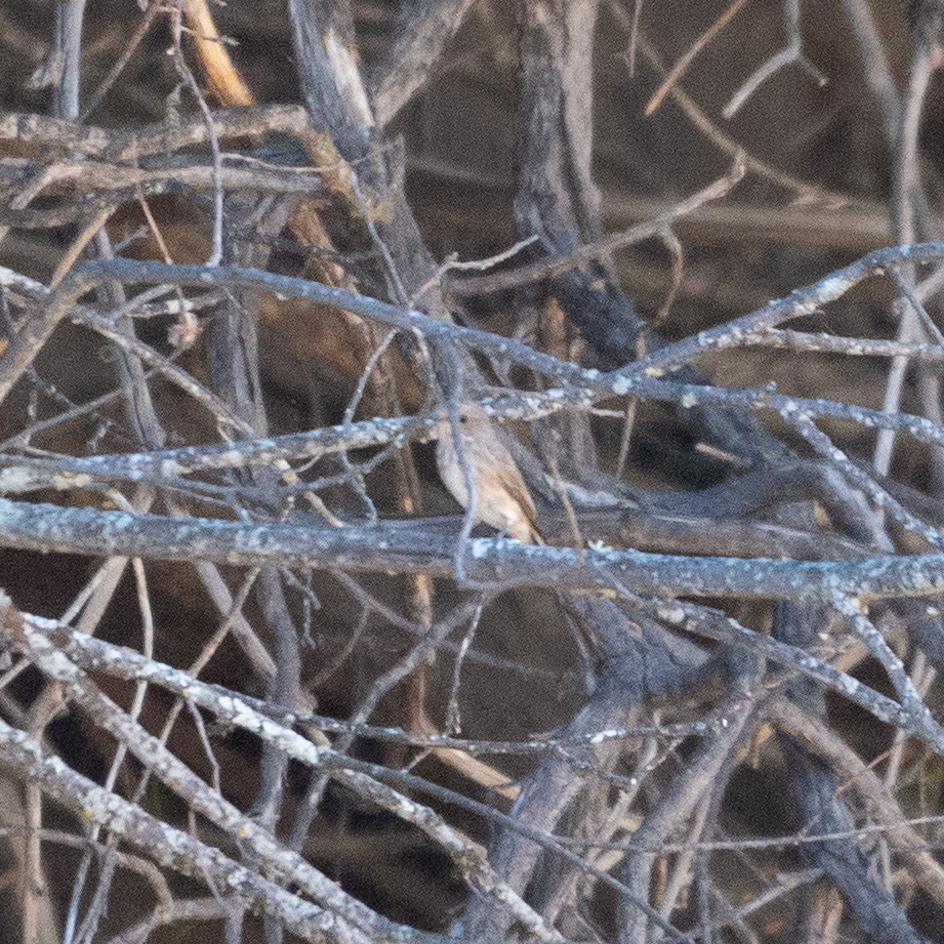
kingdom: Animalia
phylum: Chordata
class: Aves
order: Passeriformes
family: Muscicapidae
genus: Muscicapa
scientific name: Muscicapa striata
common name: Spotted flycatcher
